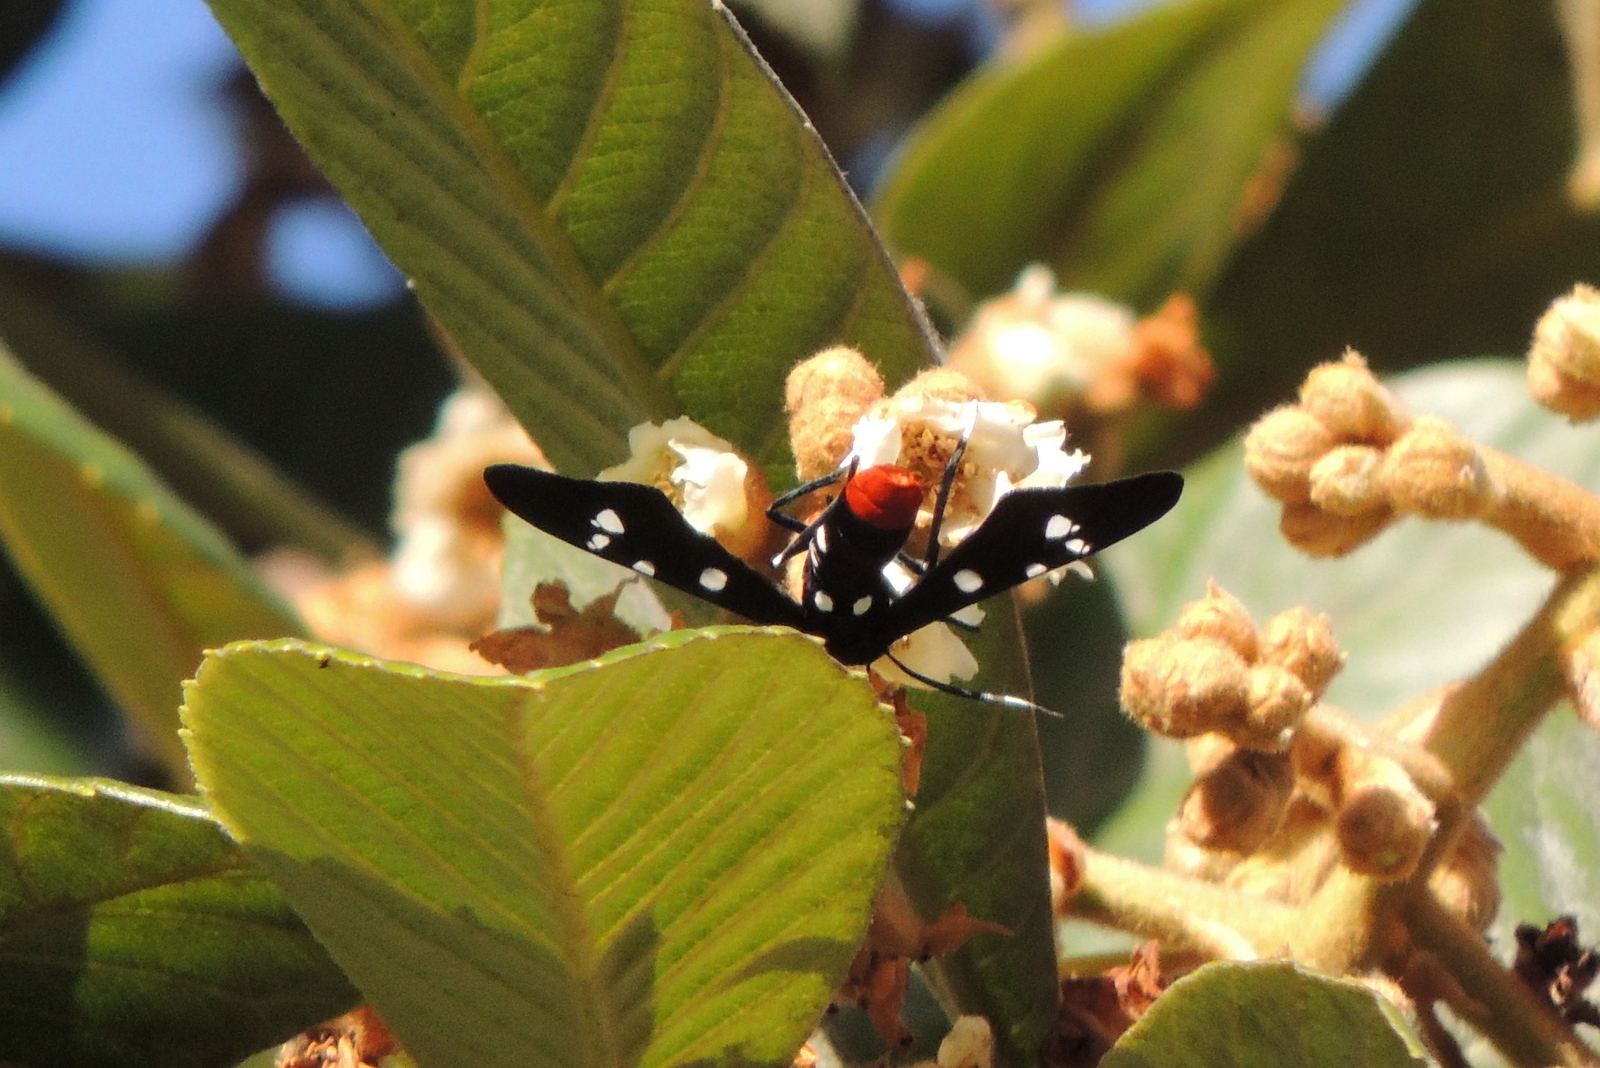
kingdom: Animalia
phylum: Arthropoda
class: Insecta
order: Lepidoptera
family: Erebidae
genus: Syntomeida
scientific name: Syntomeida epilais
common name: Polka-dot wasp moth
